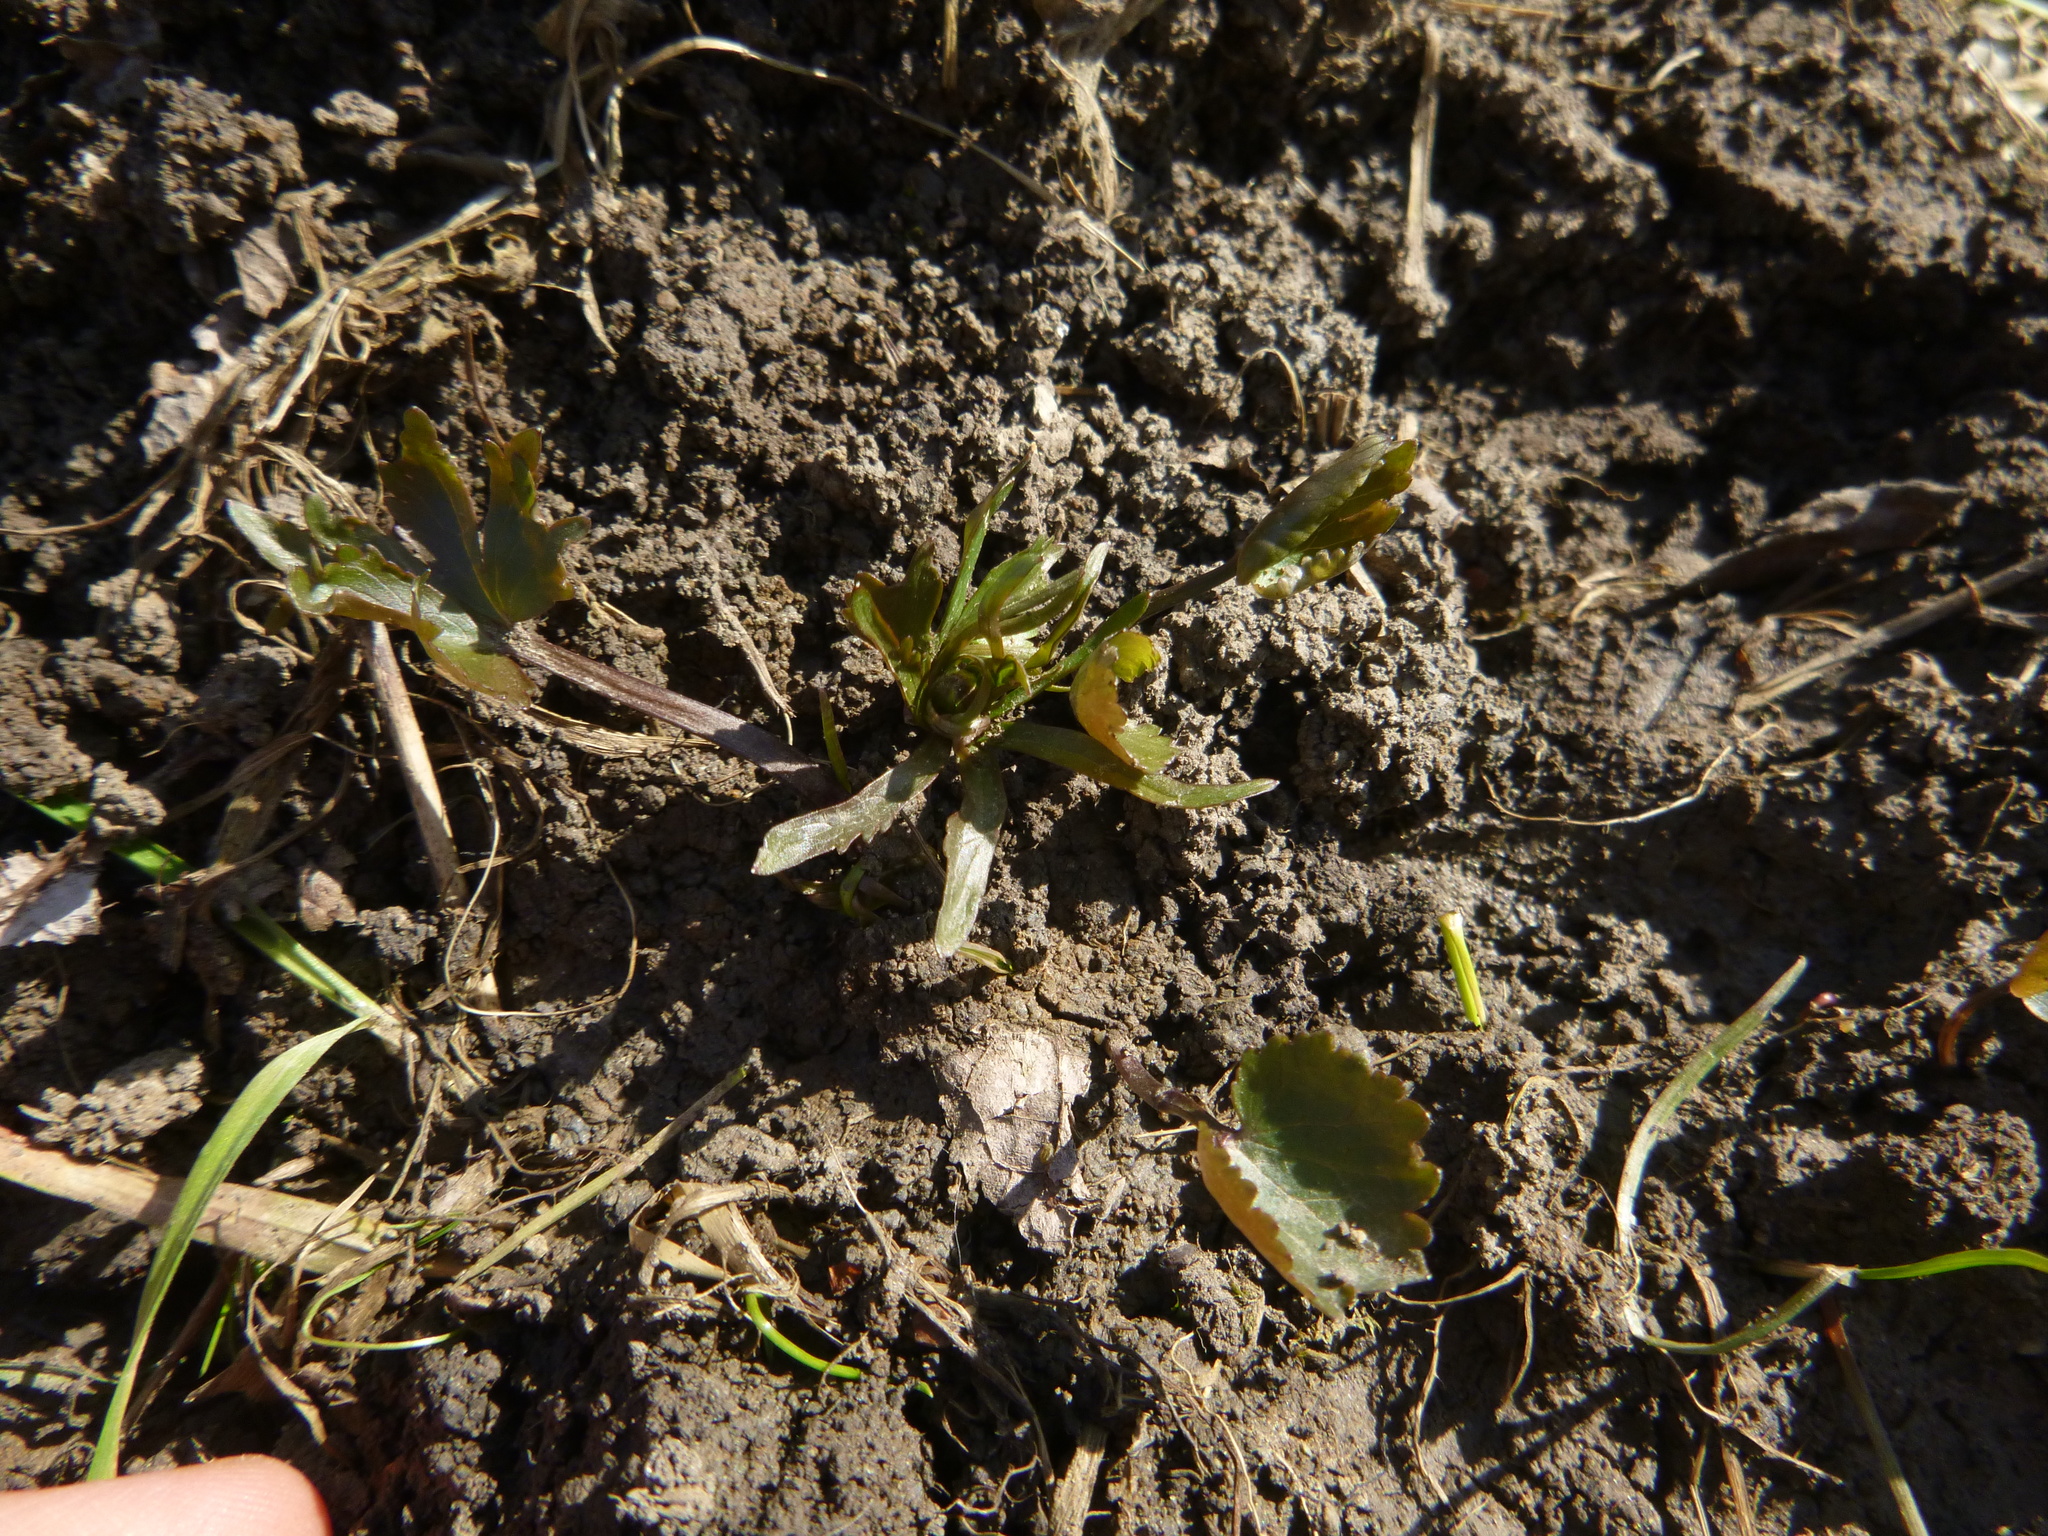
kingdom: Plantae
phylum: Tracheophyta
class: Magnoliopsida
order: Ranunculales
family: Ranunculaceae
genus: Ranunculus
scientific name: Ranunculus auricomus
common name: Goldilocks buttercup
